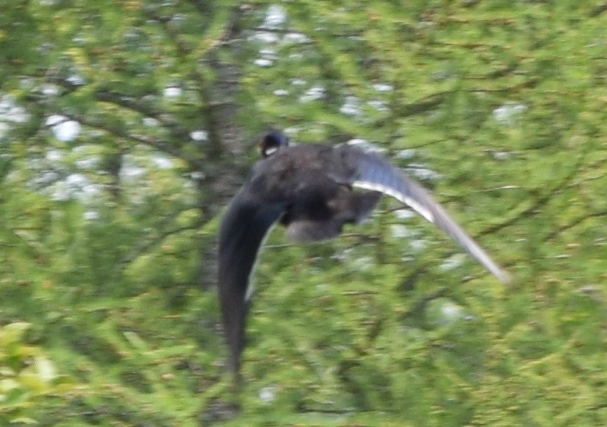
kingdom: Animalia
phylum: Chordata
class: Aves
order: Anseriformes
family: Anatidae
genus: Aix
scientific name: Aix sponsa
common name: Wood duck
